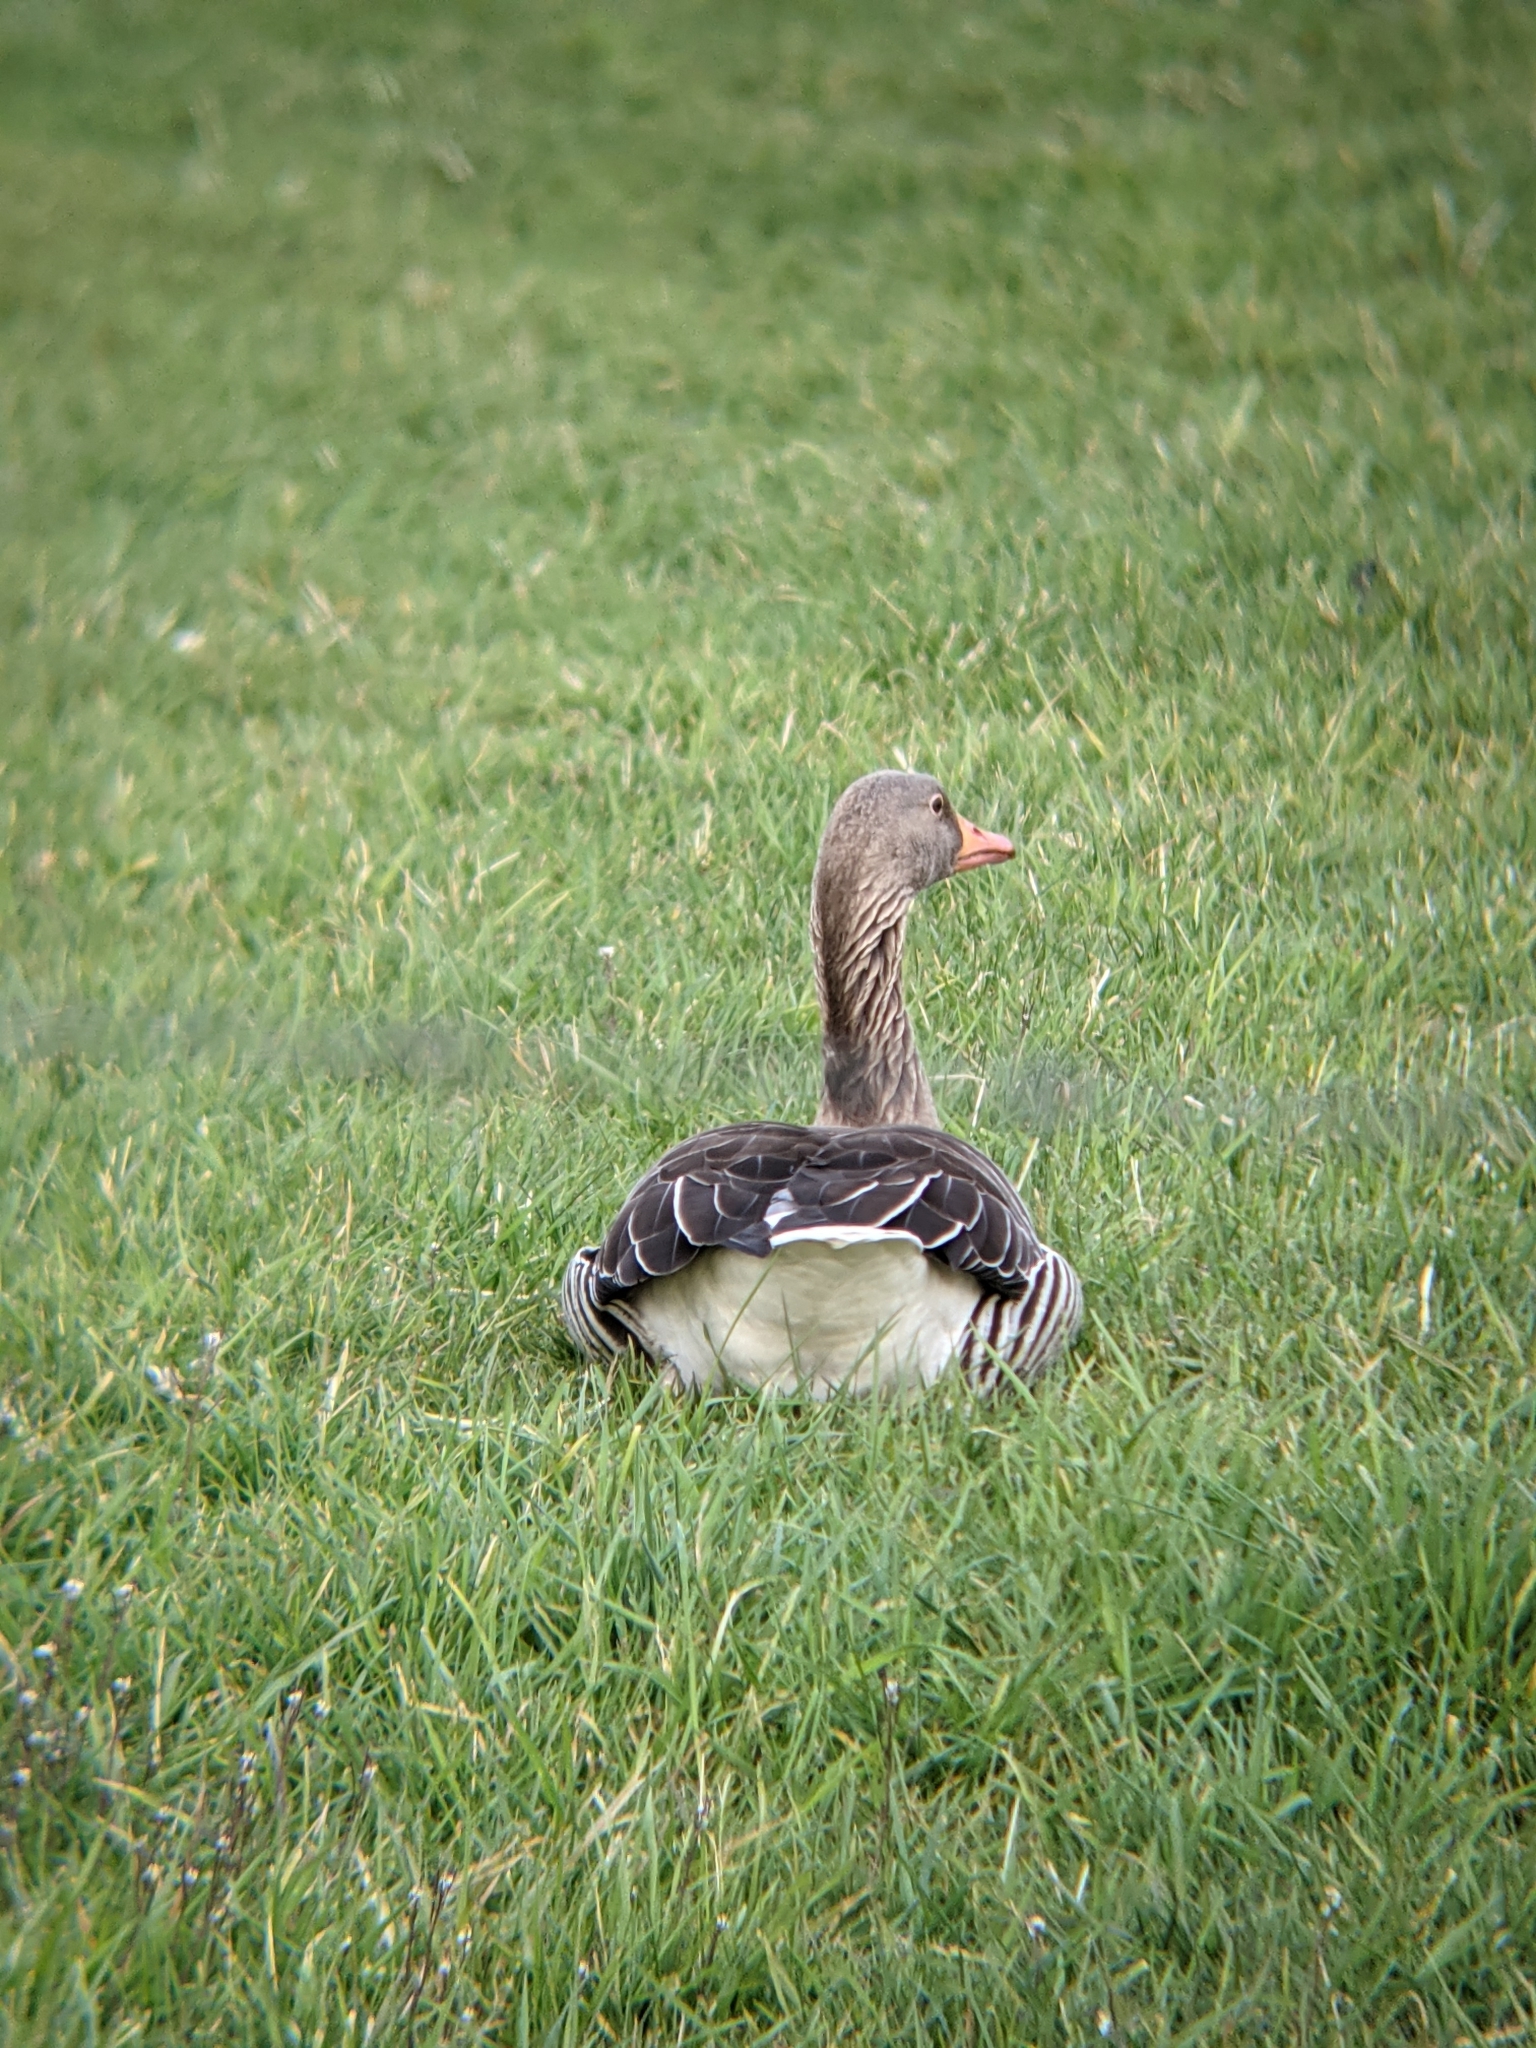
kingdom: Animalia
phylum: Chordata
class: Aves
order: Anseriformes
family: Anatidae
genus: Anser
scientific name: Anser anser
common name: Greylag goose
